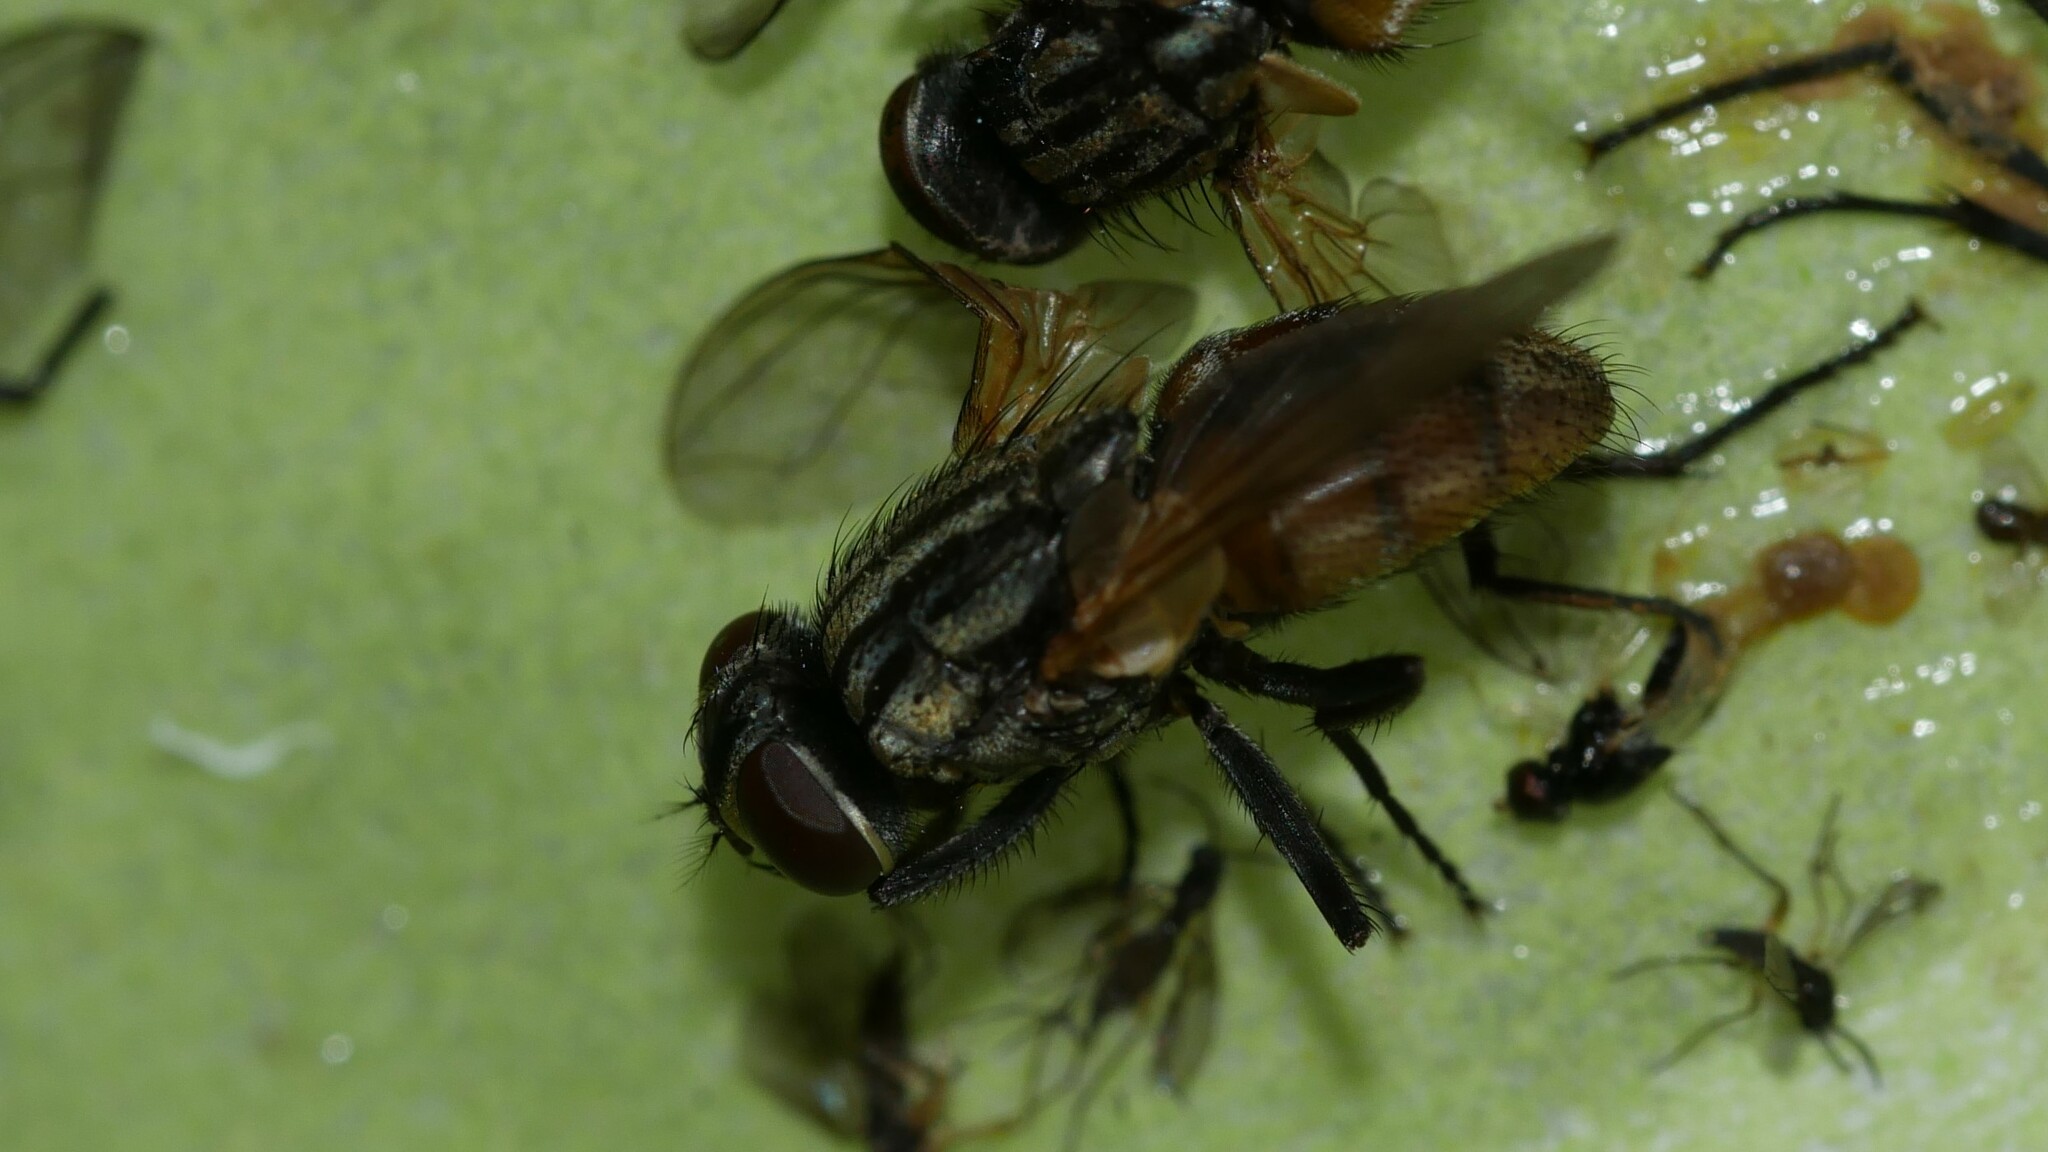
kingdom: Animalia
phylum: Arthropoda
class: Insecta
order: Diptera
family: Muscidae
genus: Musca
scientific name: Musca domestica
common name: House fly
